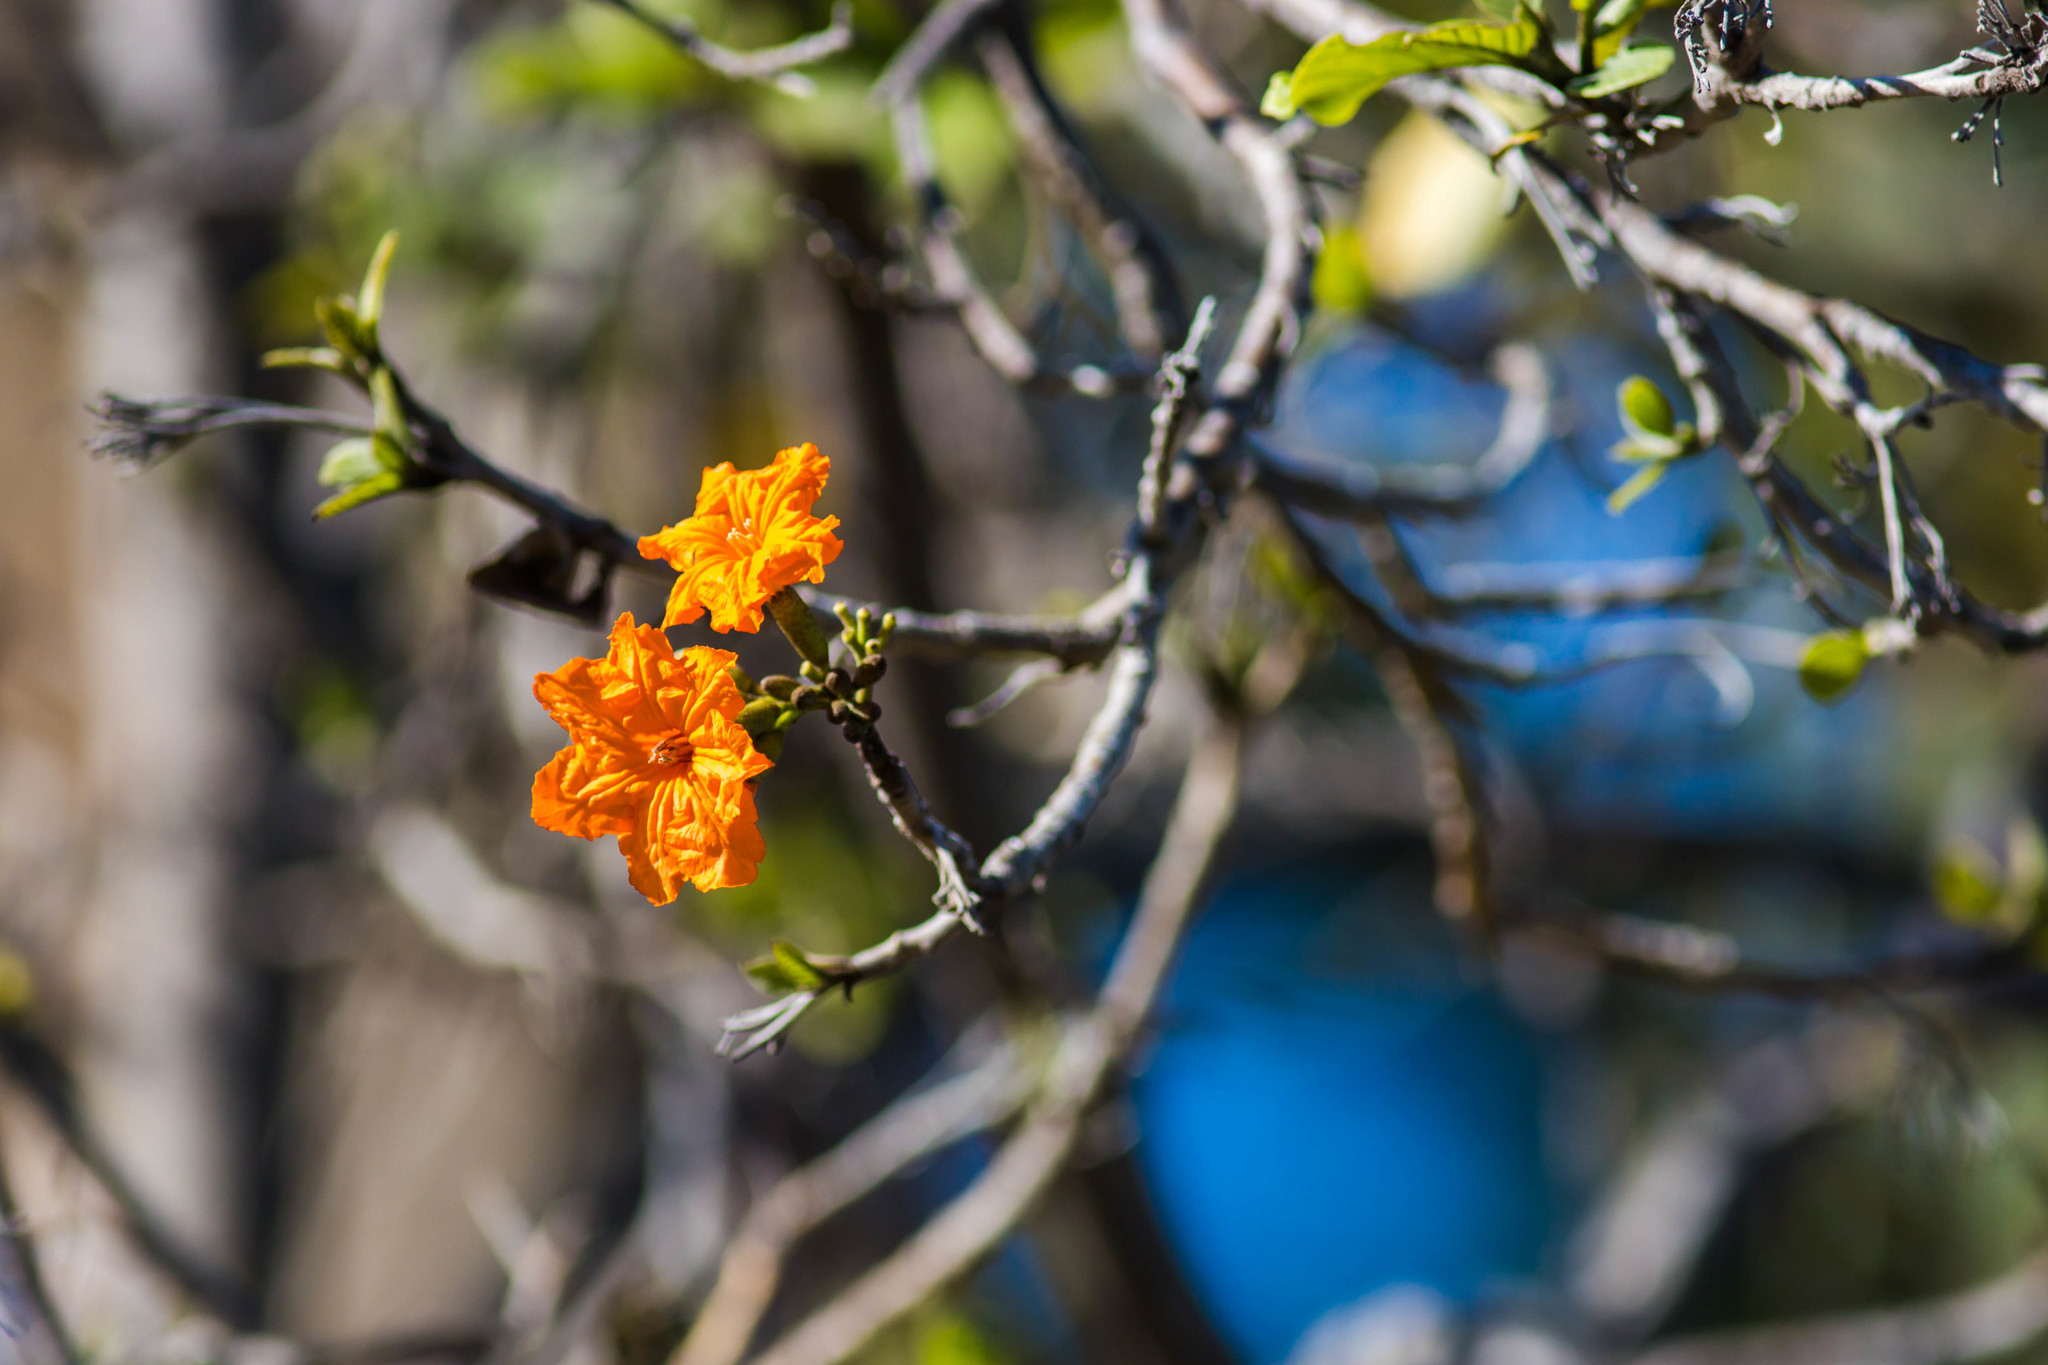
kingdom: Plantae
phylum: Tracheophyta
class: Magnoliopsida
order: Boraginales
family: Cordiaceae
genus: Cordia
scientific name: Cordia sebestena
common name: Largeleaf geigertree
